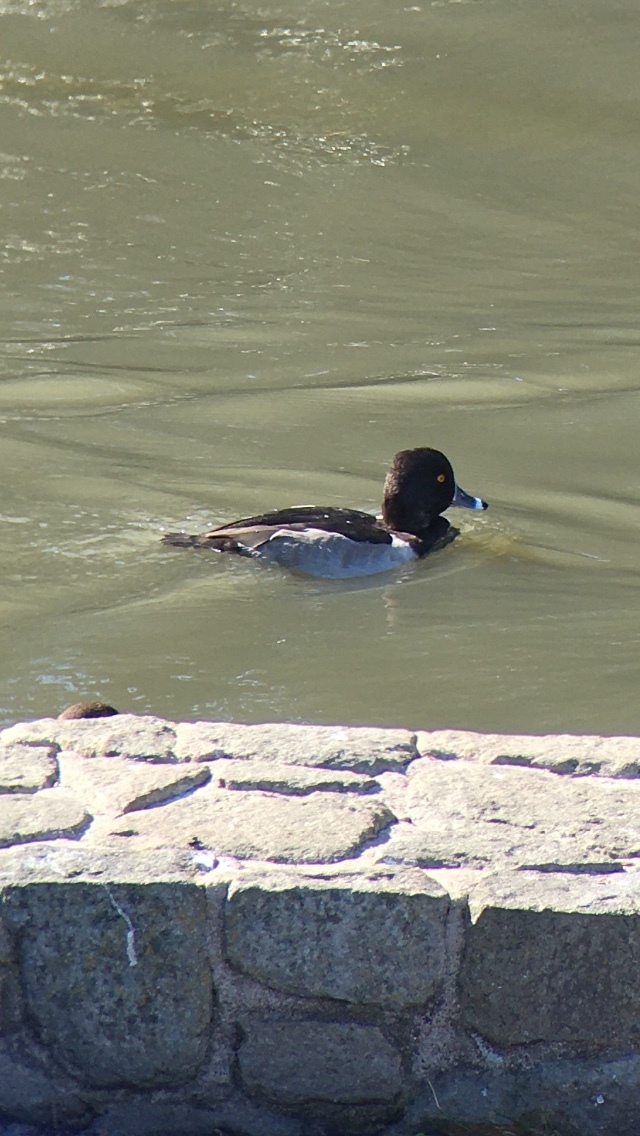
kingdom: Animalia
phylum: Chordata
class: Aves
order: Anseriformes
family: Anatidae
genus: Aythya
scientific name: Aythya collaris
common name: Ring-necked duck
